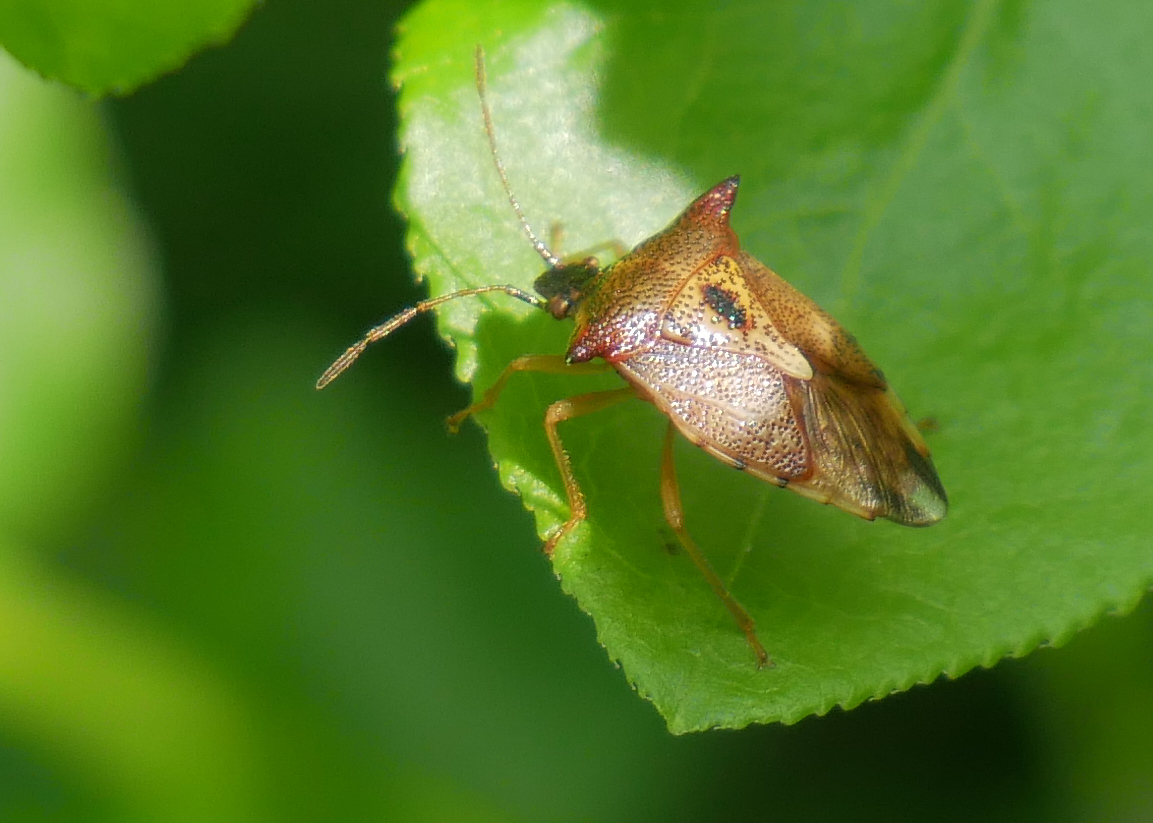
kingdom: Animalia
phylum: Arthropoda
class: Insecta
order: Hemiptera
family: Acanthosomatidae
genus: Elasmucha
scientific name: Elasmucha ferrugata
